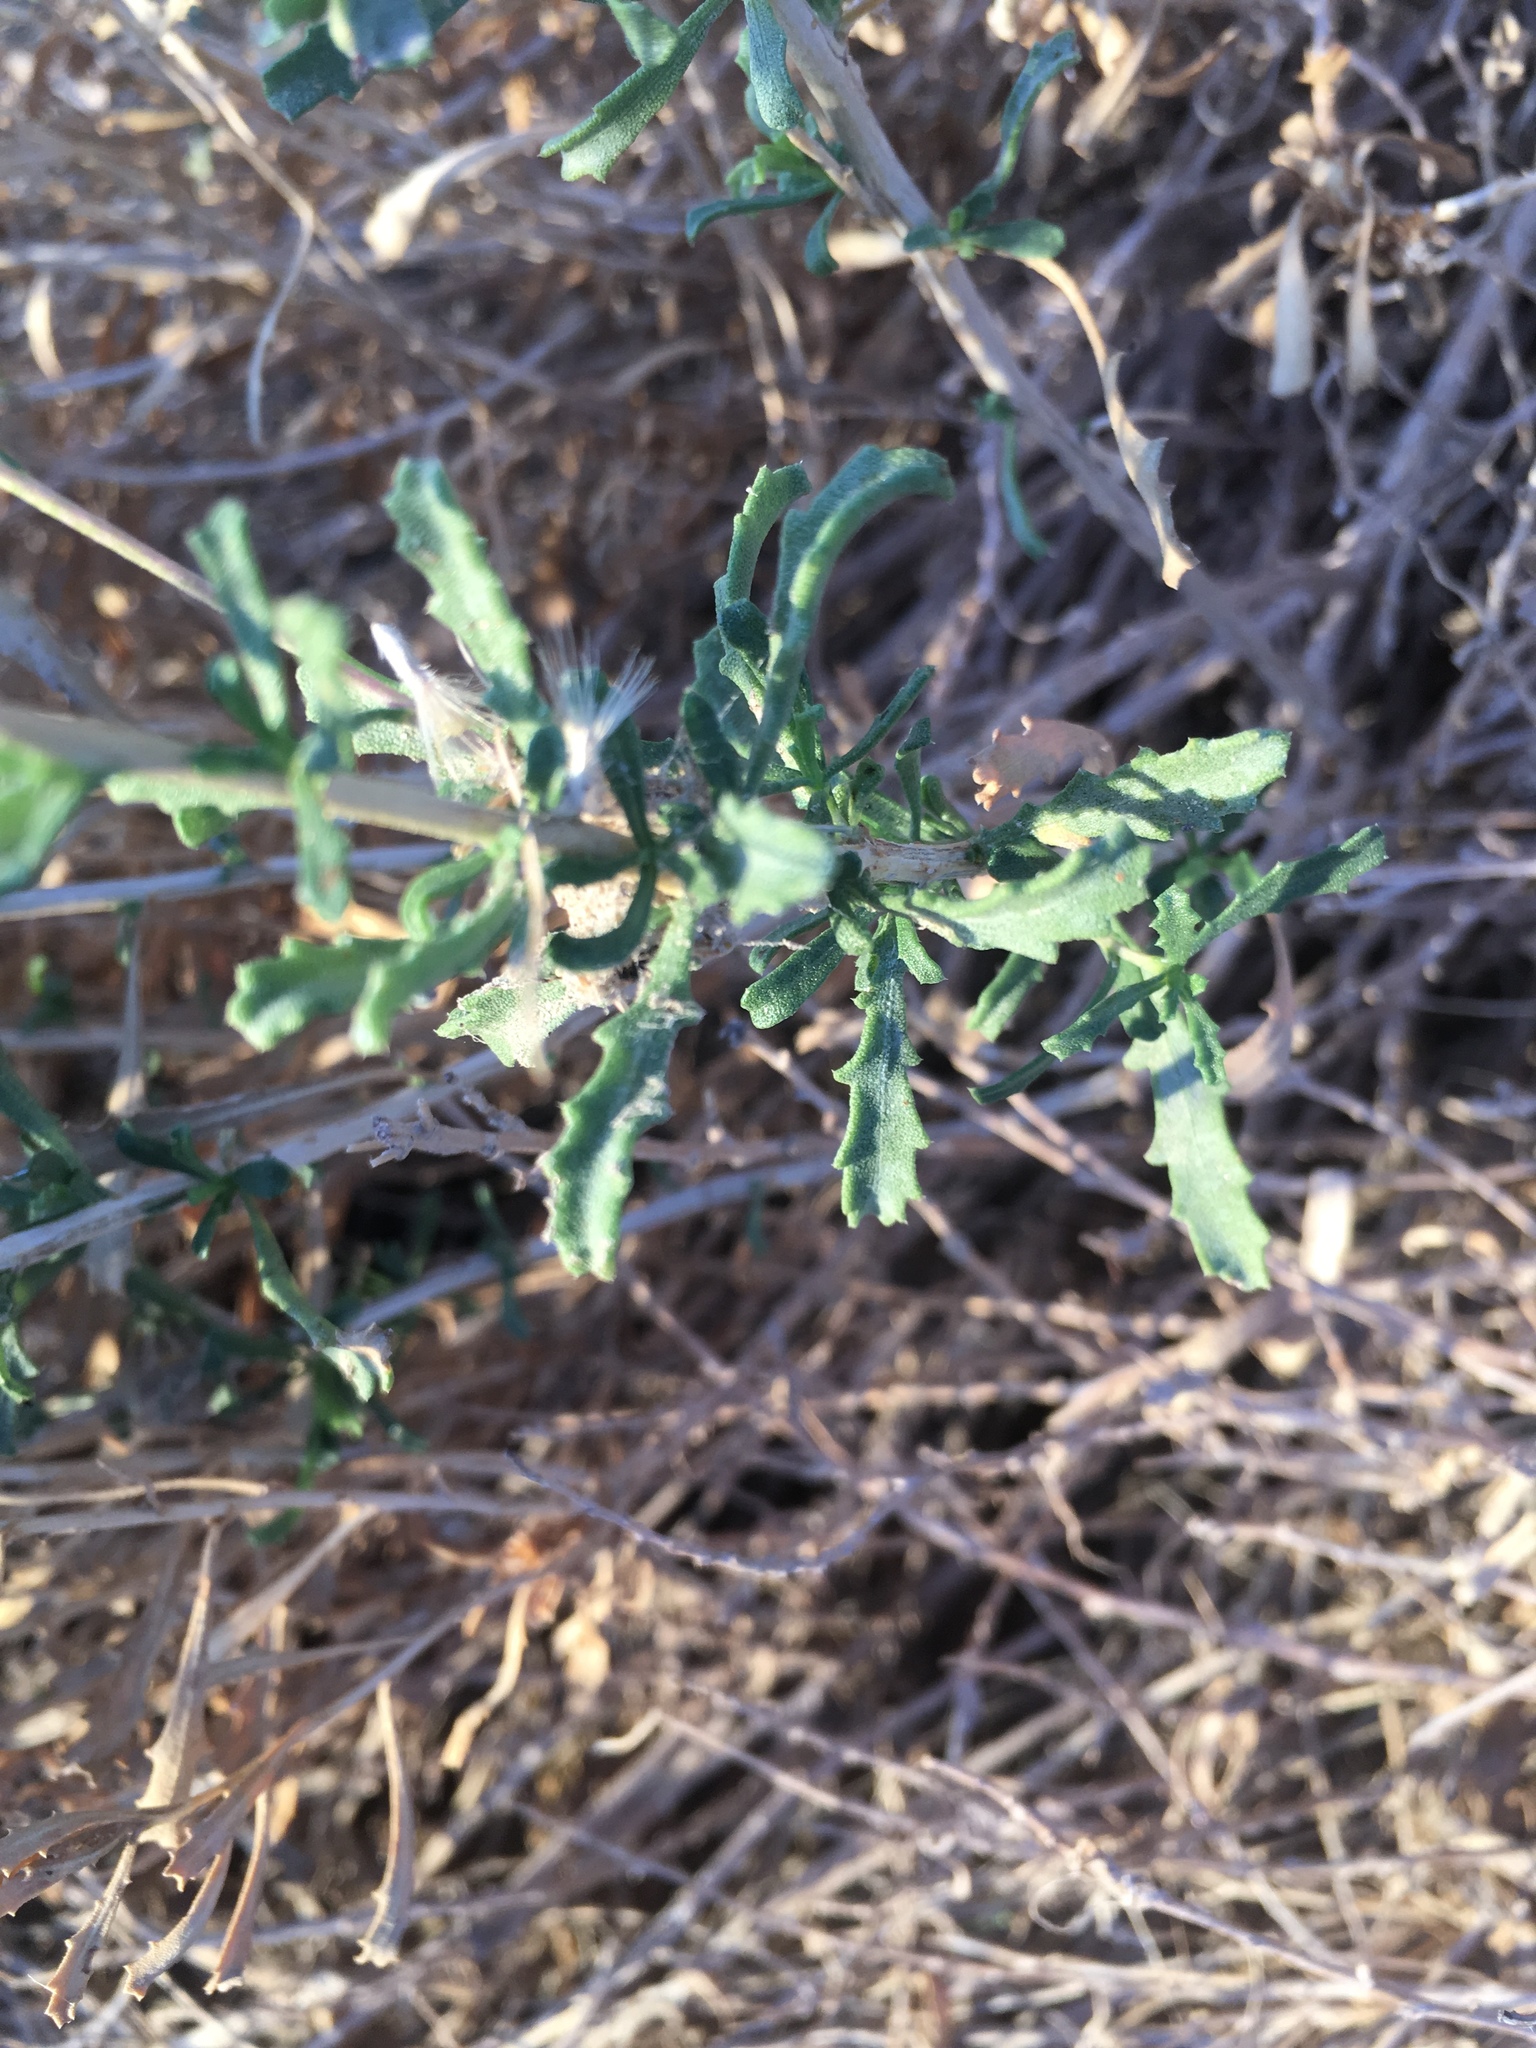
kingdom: Plantae
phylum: Tracheophyta
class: Magnoliopsida
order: Asterales
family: Asteraceae
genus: Isocoma
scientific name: Isocoma acradenia
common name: Alkali jimmyweed
